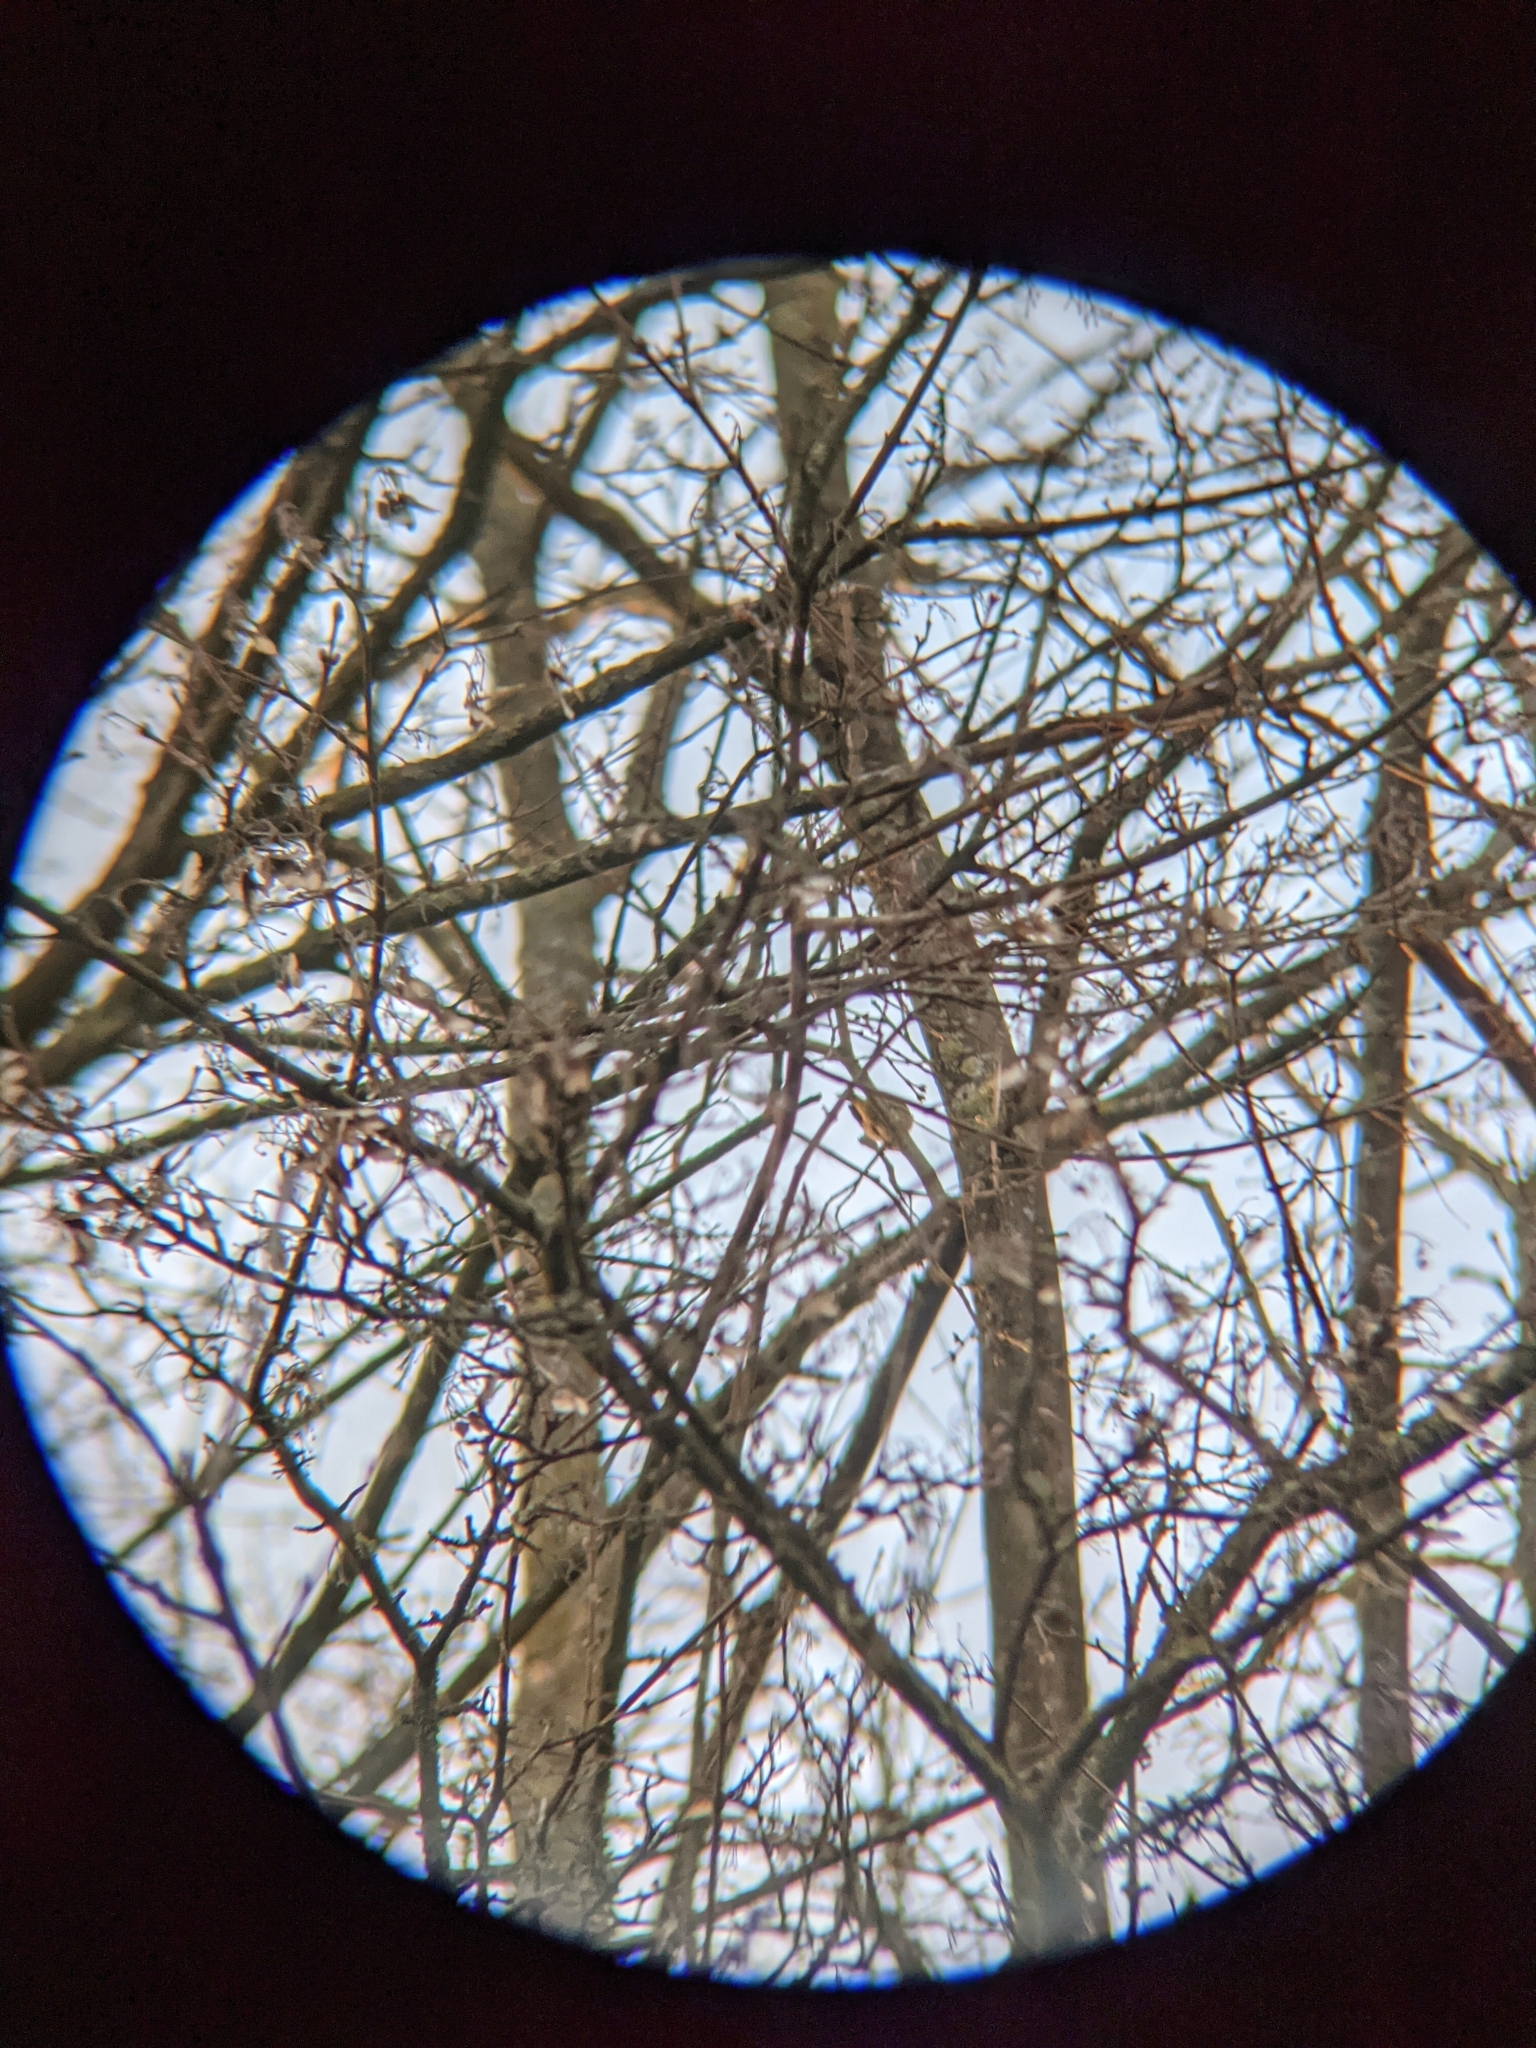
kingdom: Animalia
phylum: Chordata
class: Aves
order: Passeriformes
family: Phylloscopidae
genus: Phylloscopus
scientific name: Phylloscopus collybita
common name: Common chiffchaff
